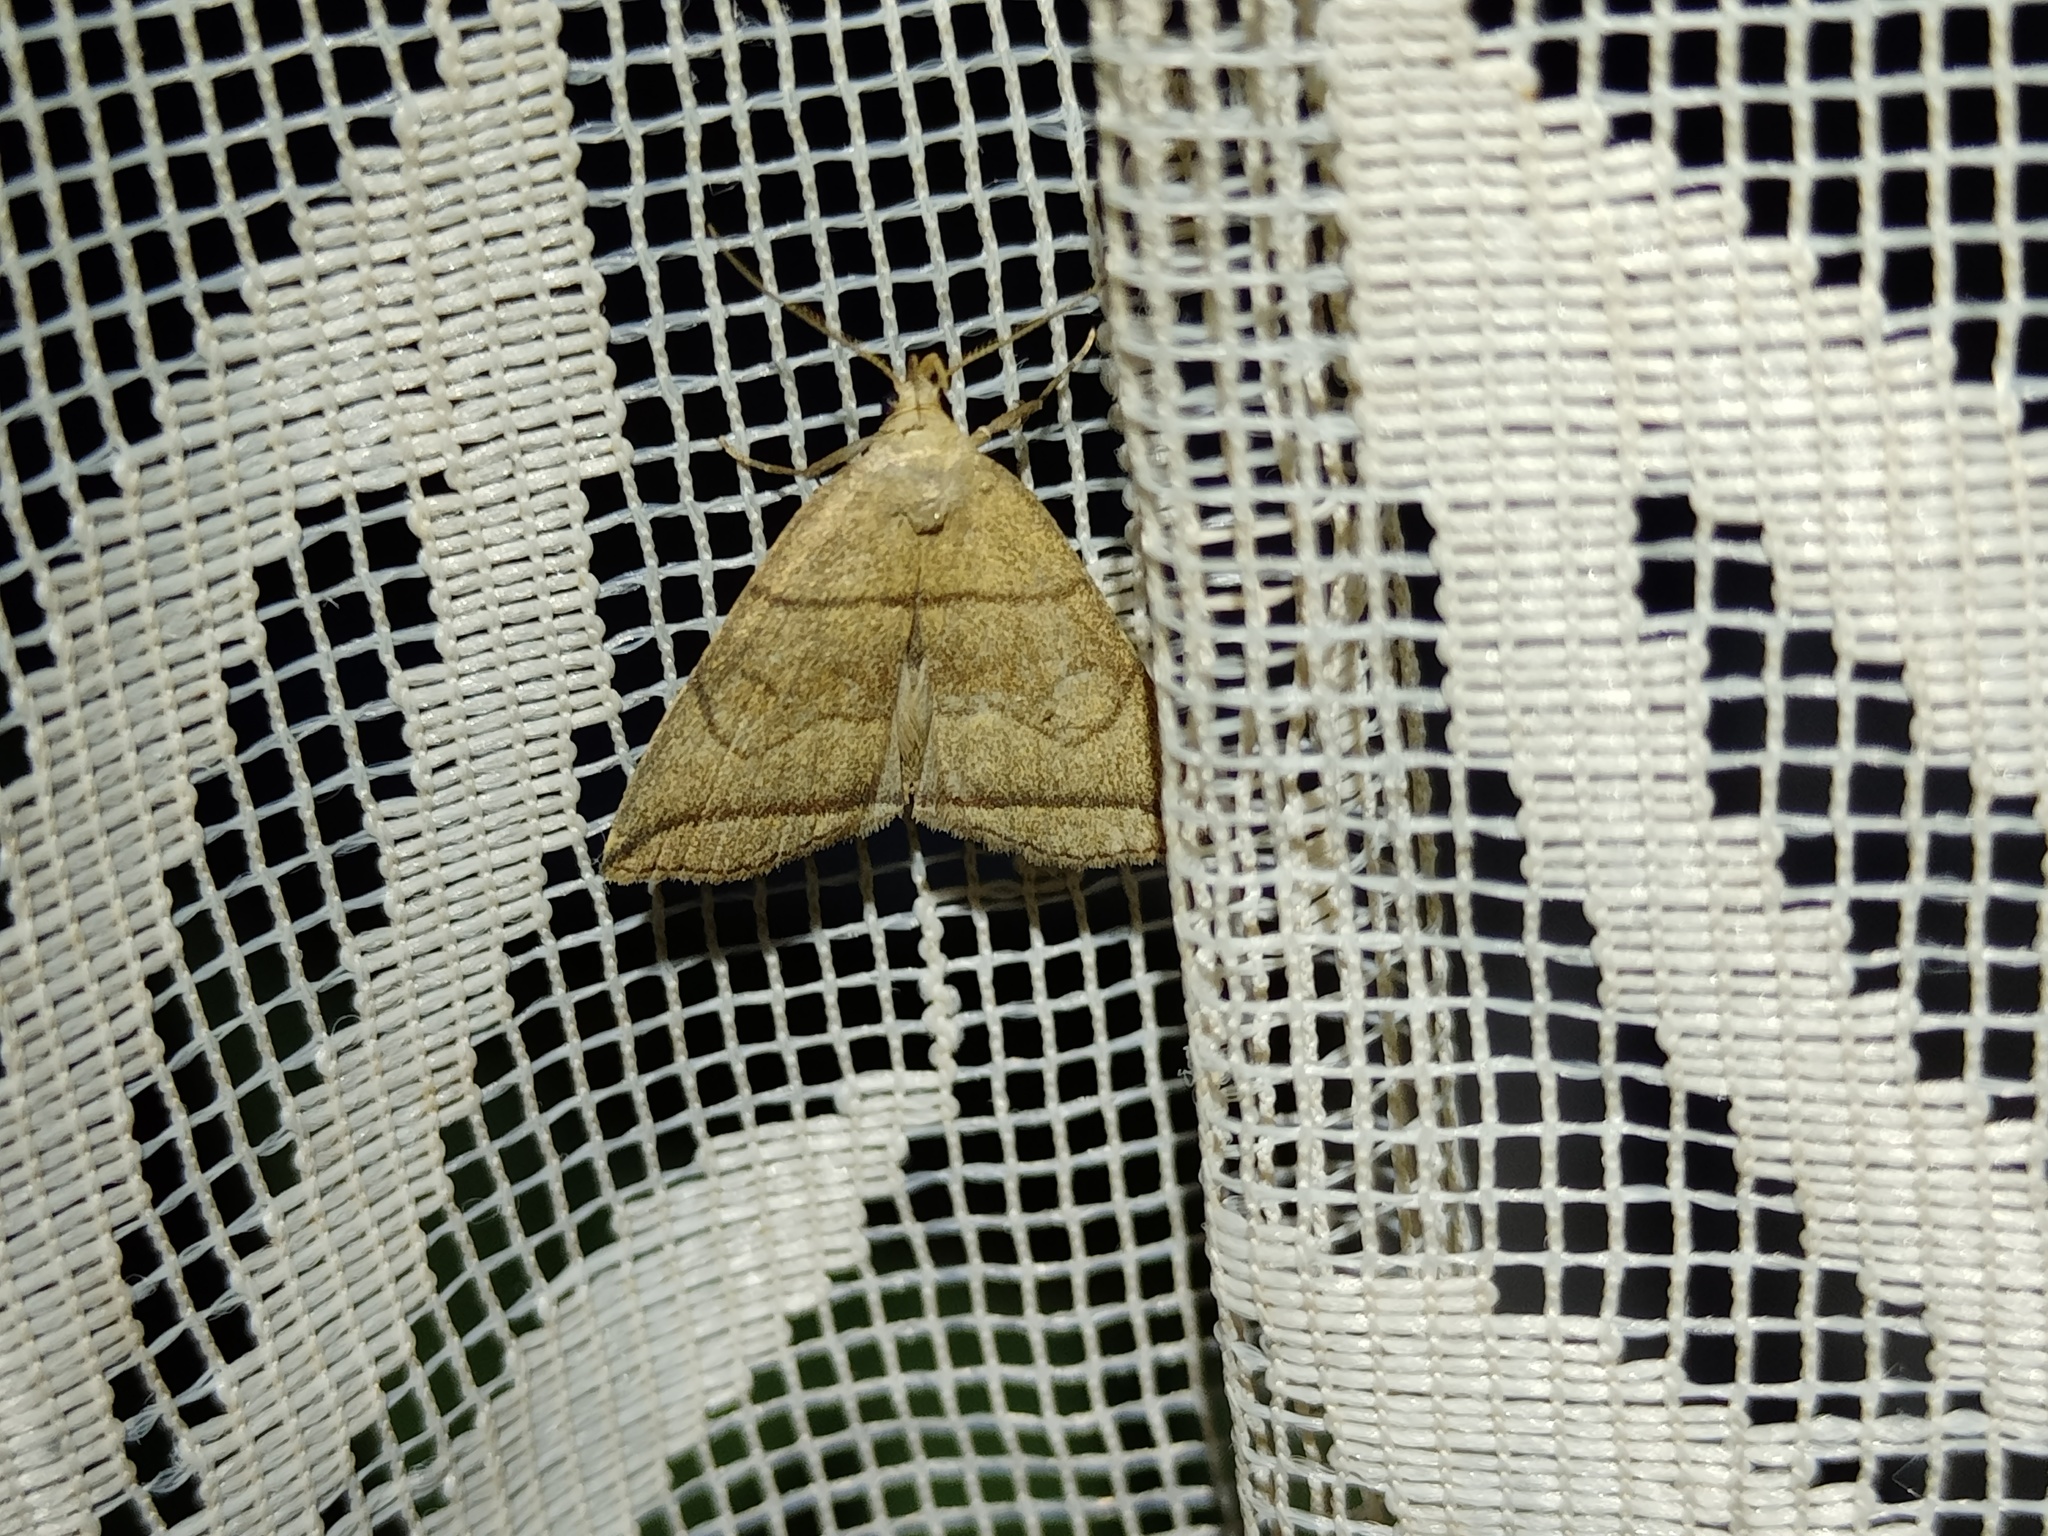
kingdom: Animalia
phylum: Arthropoda
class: Insecta
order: Lepidoptera
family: Erebidae
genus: Herminia
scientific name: Herminia grisealis
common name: Small fan-foot
